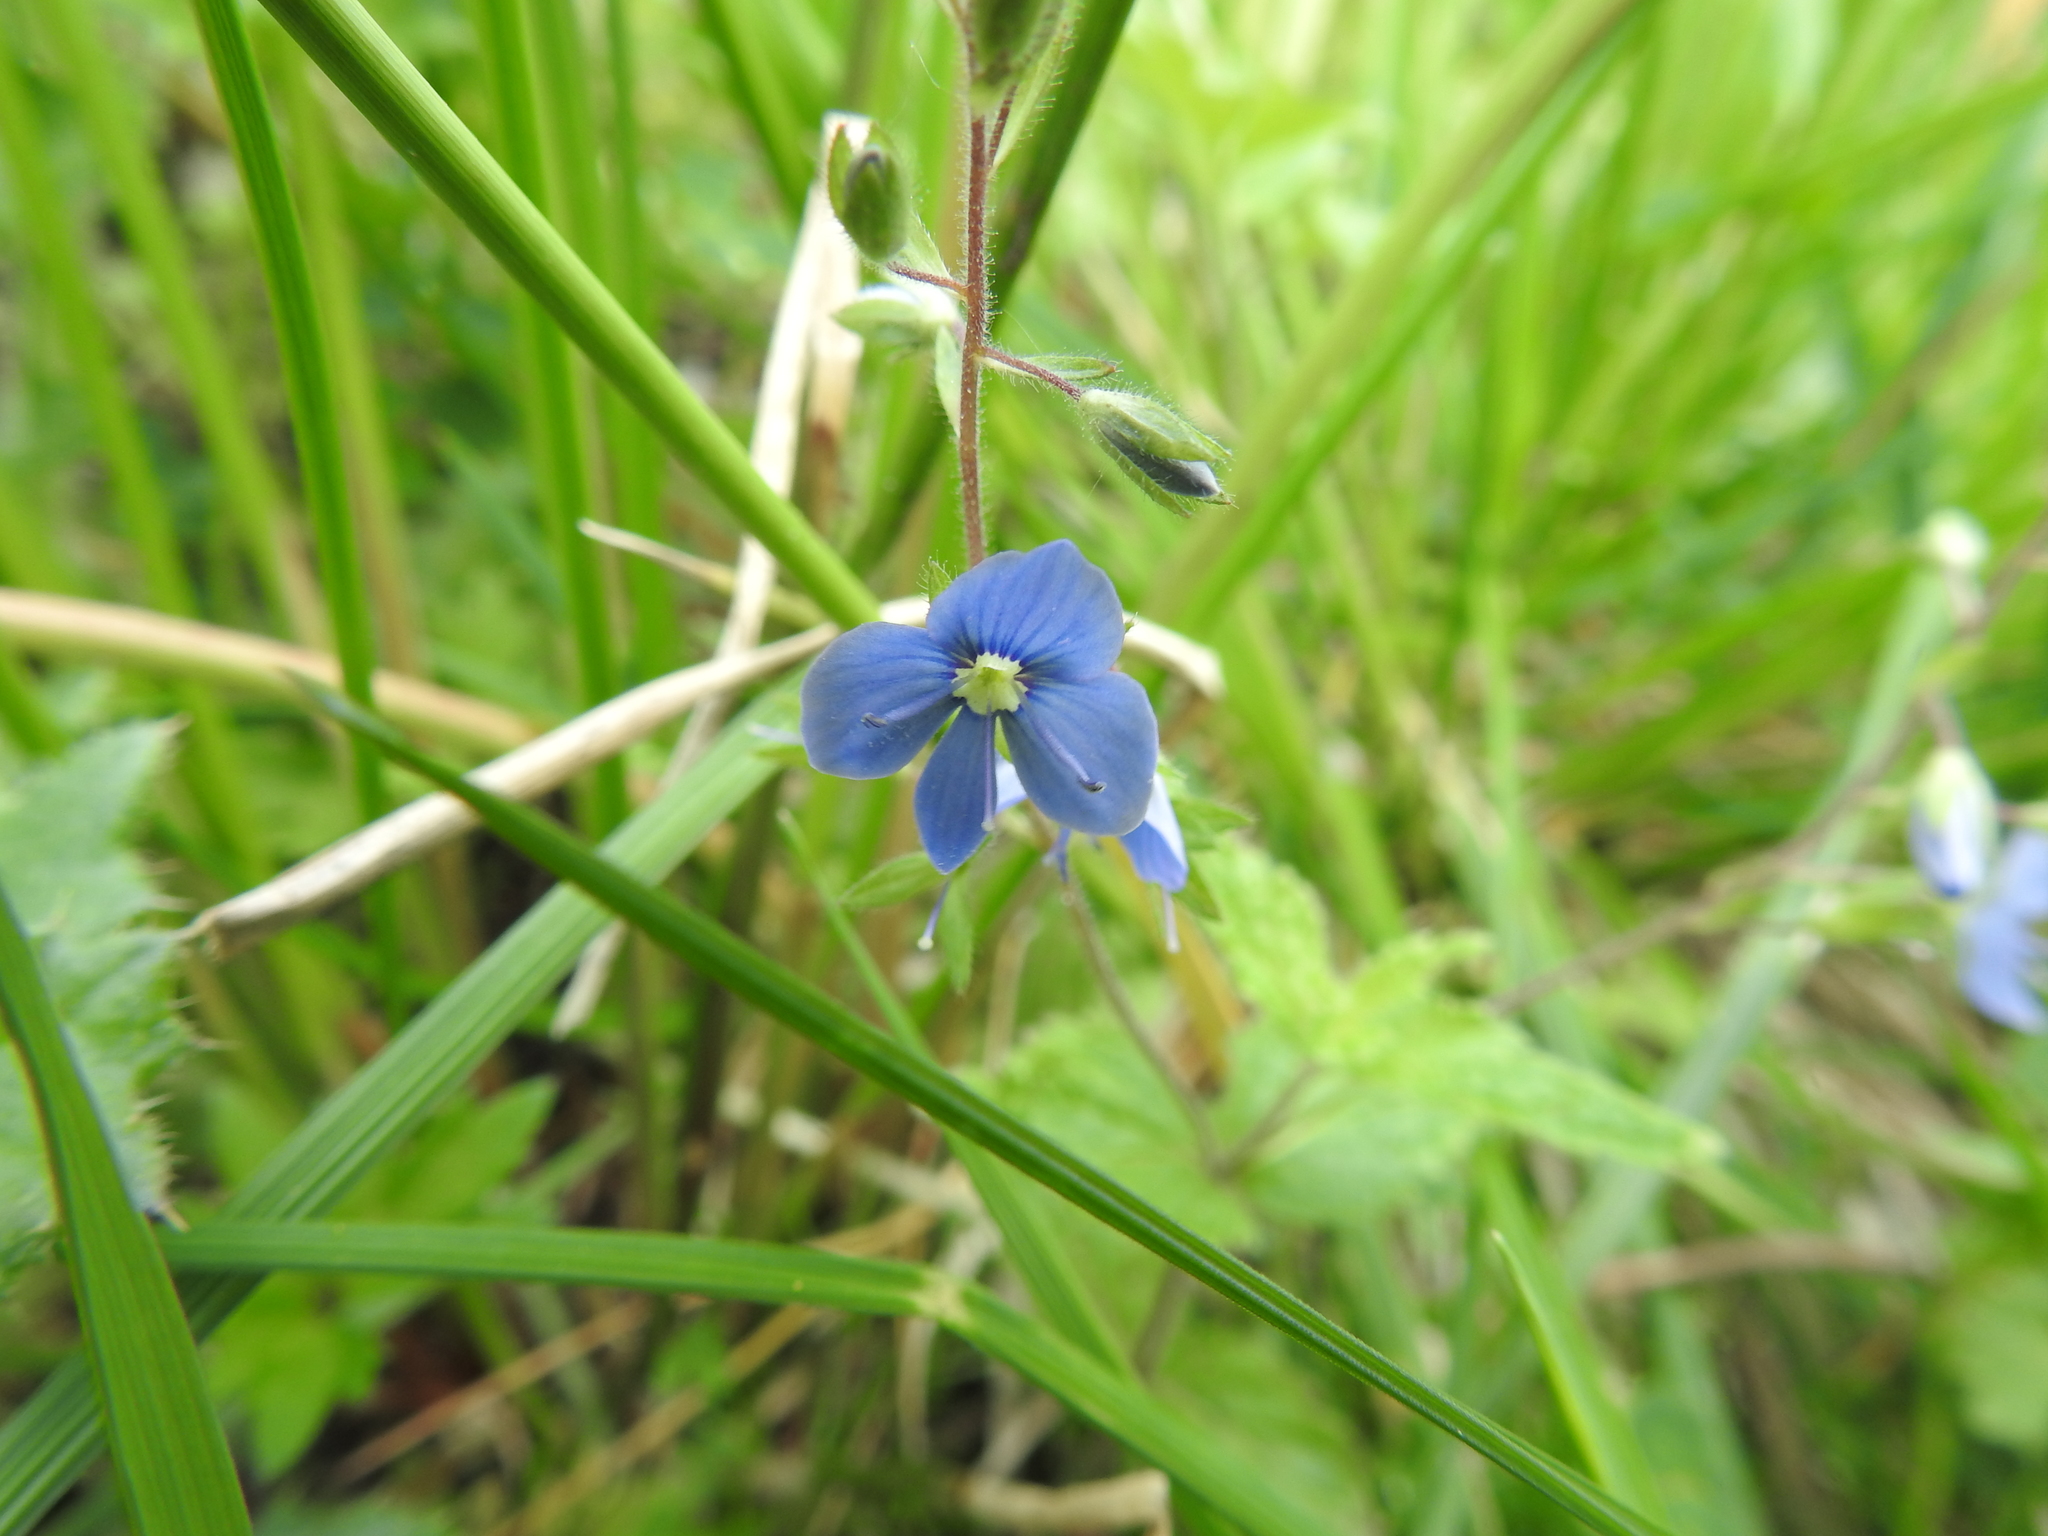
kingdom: Plantae
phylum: Tracheophyta
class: Magnoliopsida
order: Lamiales
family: Plantaginaceae
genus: Veronica
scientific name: Veronica chamaedrys
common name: Germander speedwell
